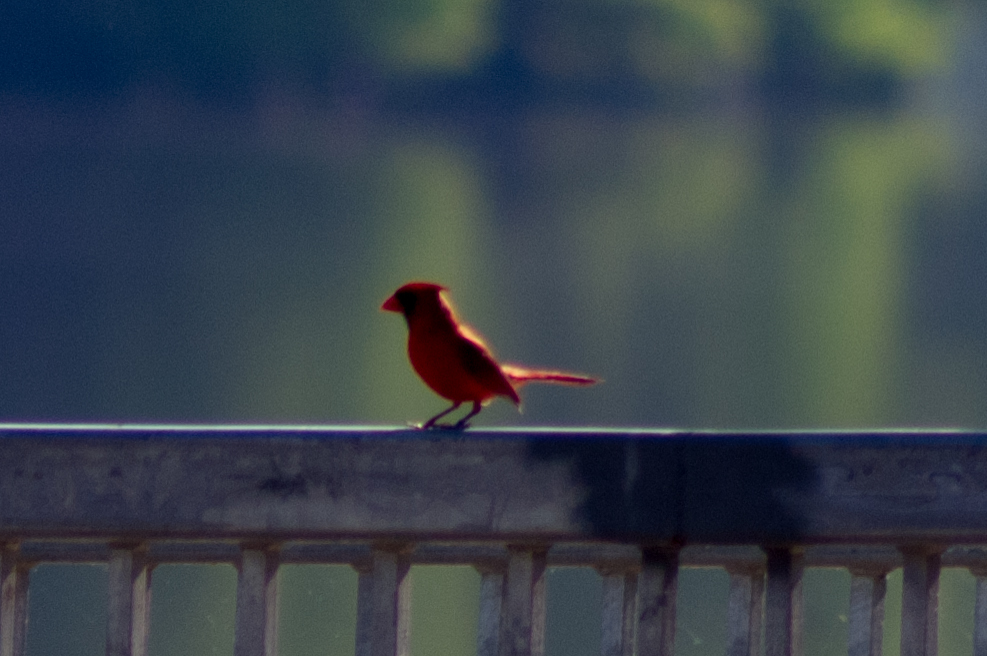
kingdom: Animalia
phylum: Chordata
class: Aves
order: Passeriformes
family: Cardinalidae
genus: Cardinalis
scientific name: Cardinalis cardinalis
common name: Northern cardinal
